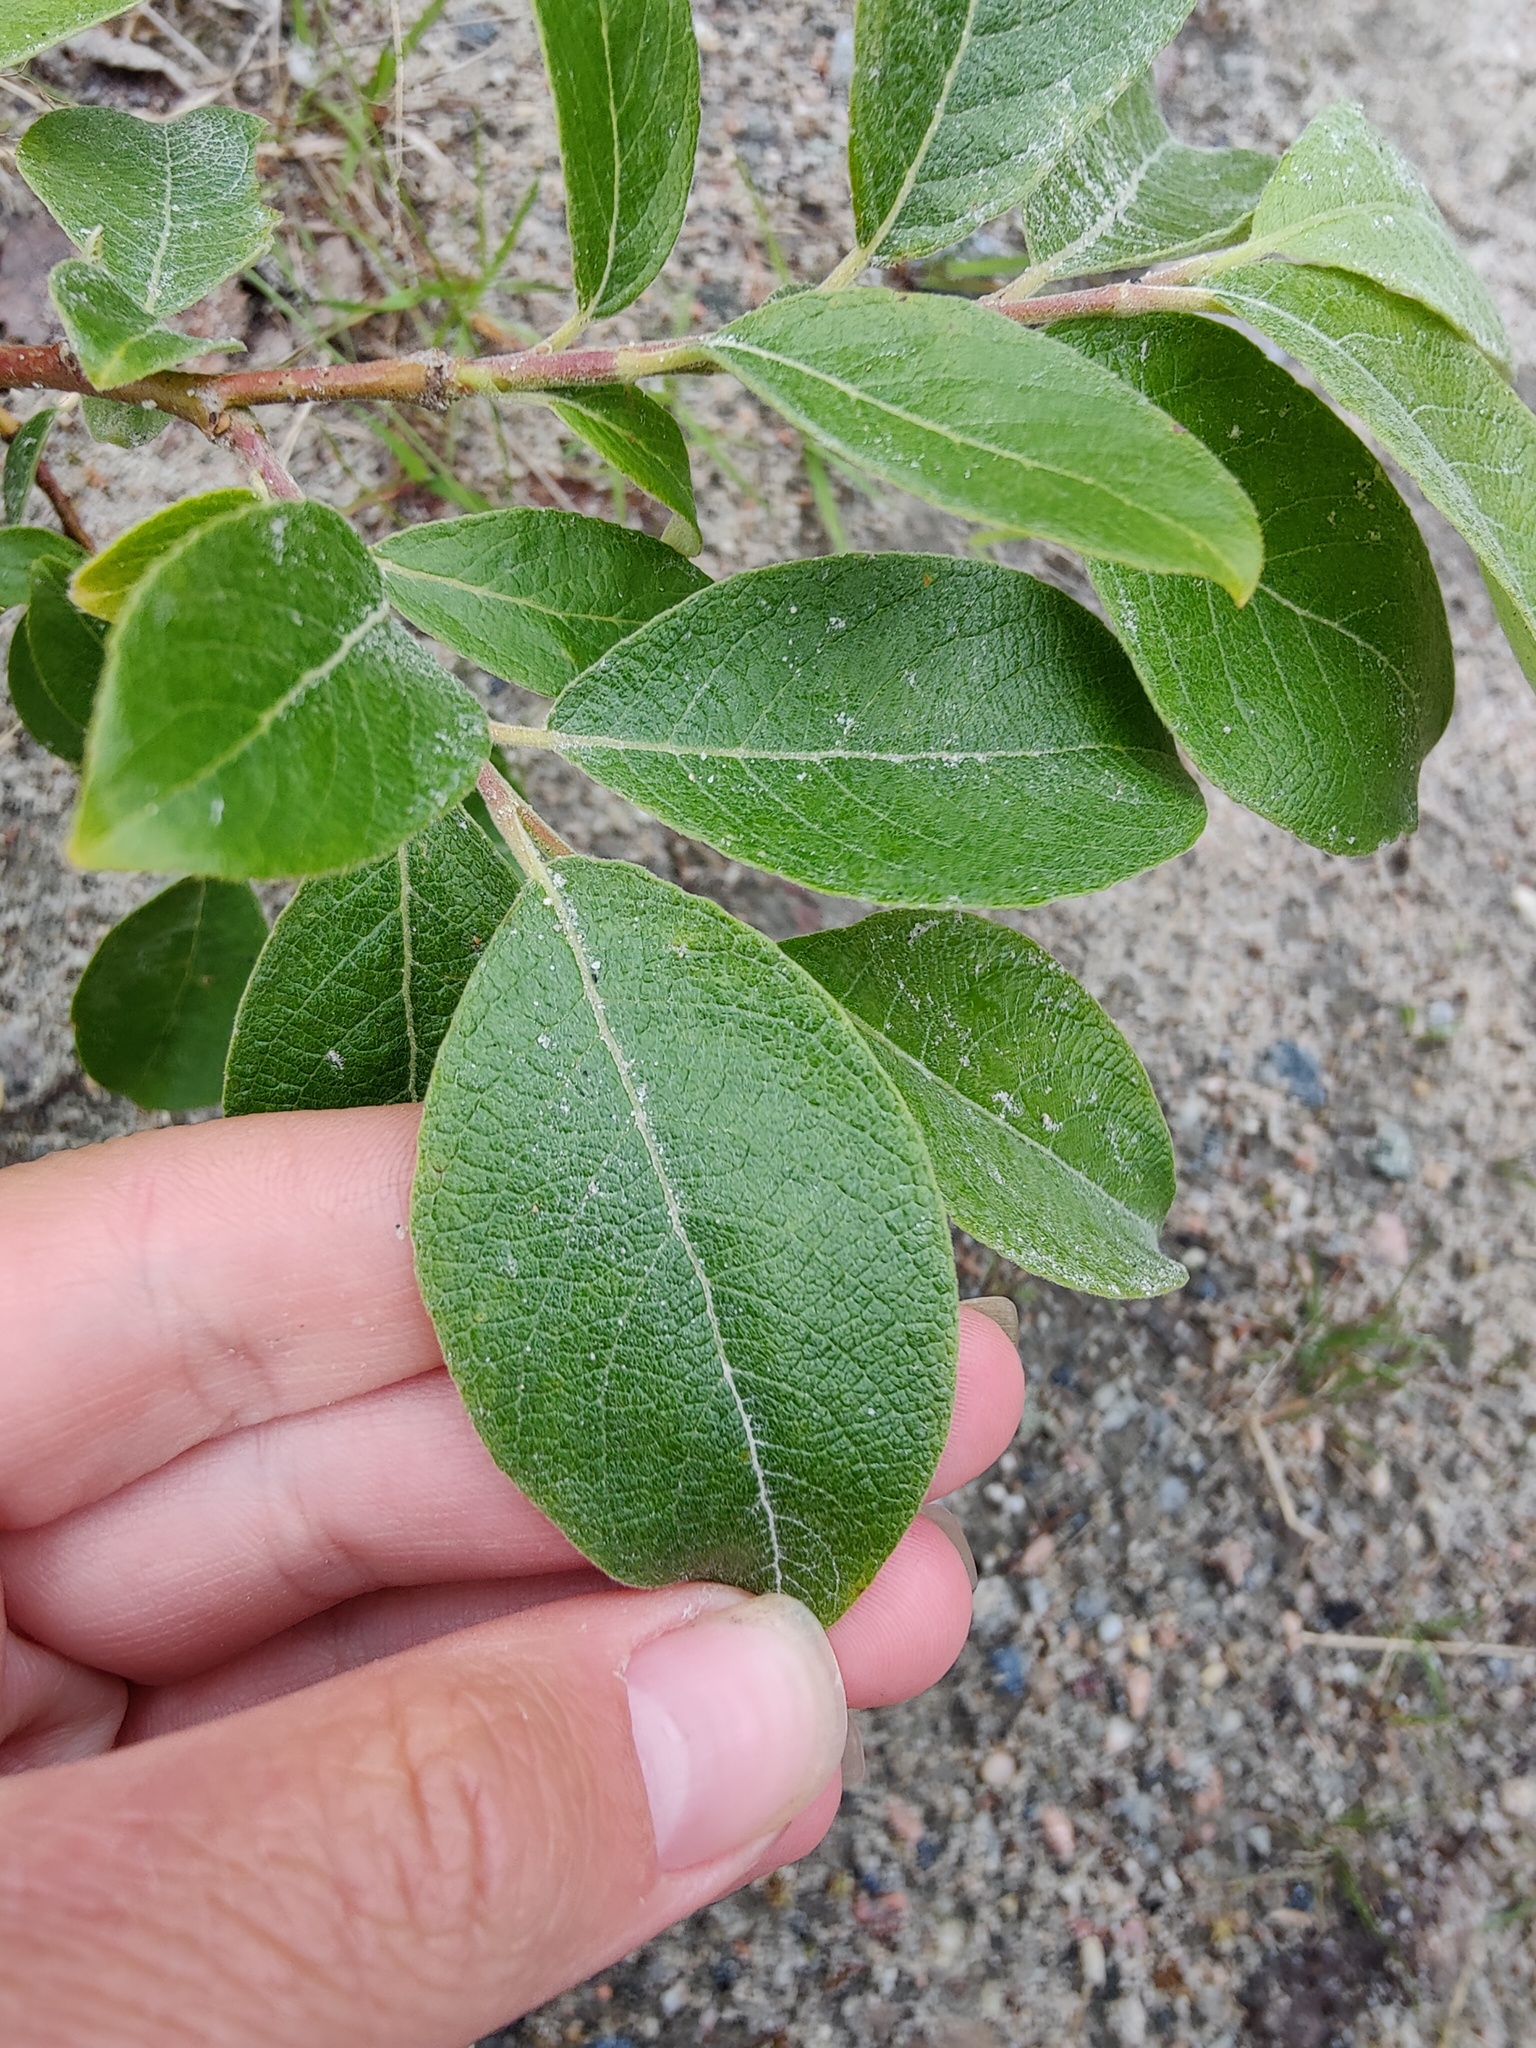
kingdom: Plantae
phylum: Tracheophyta
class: Magnoliopsida
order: Malpighiales
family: Salicaceae
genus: Salix
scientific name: Salix caprea
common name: Goat willow
